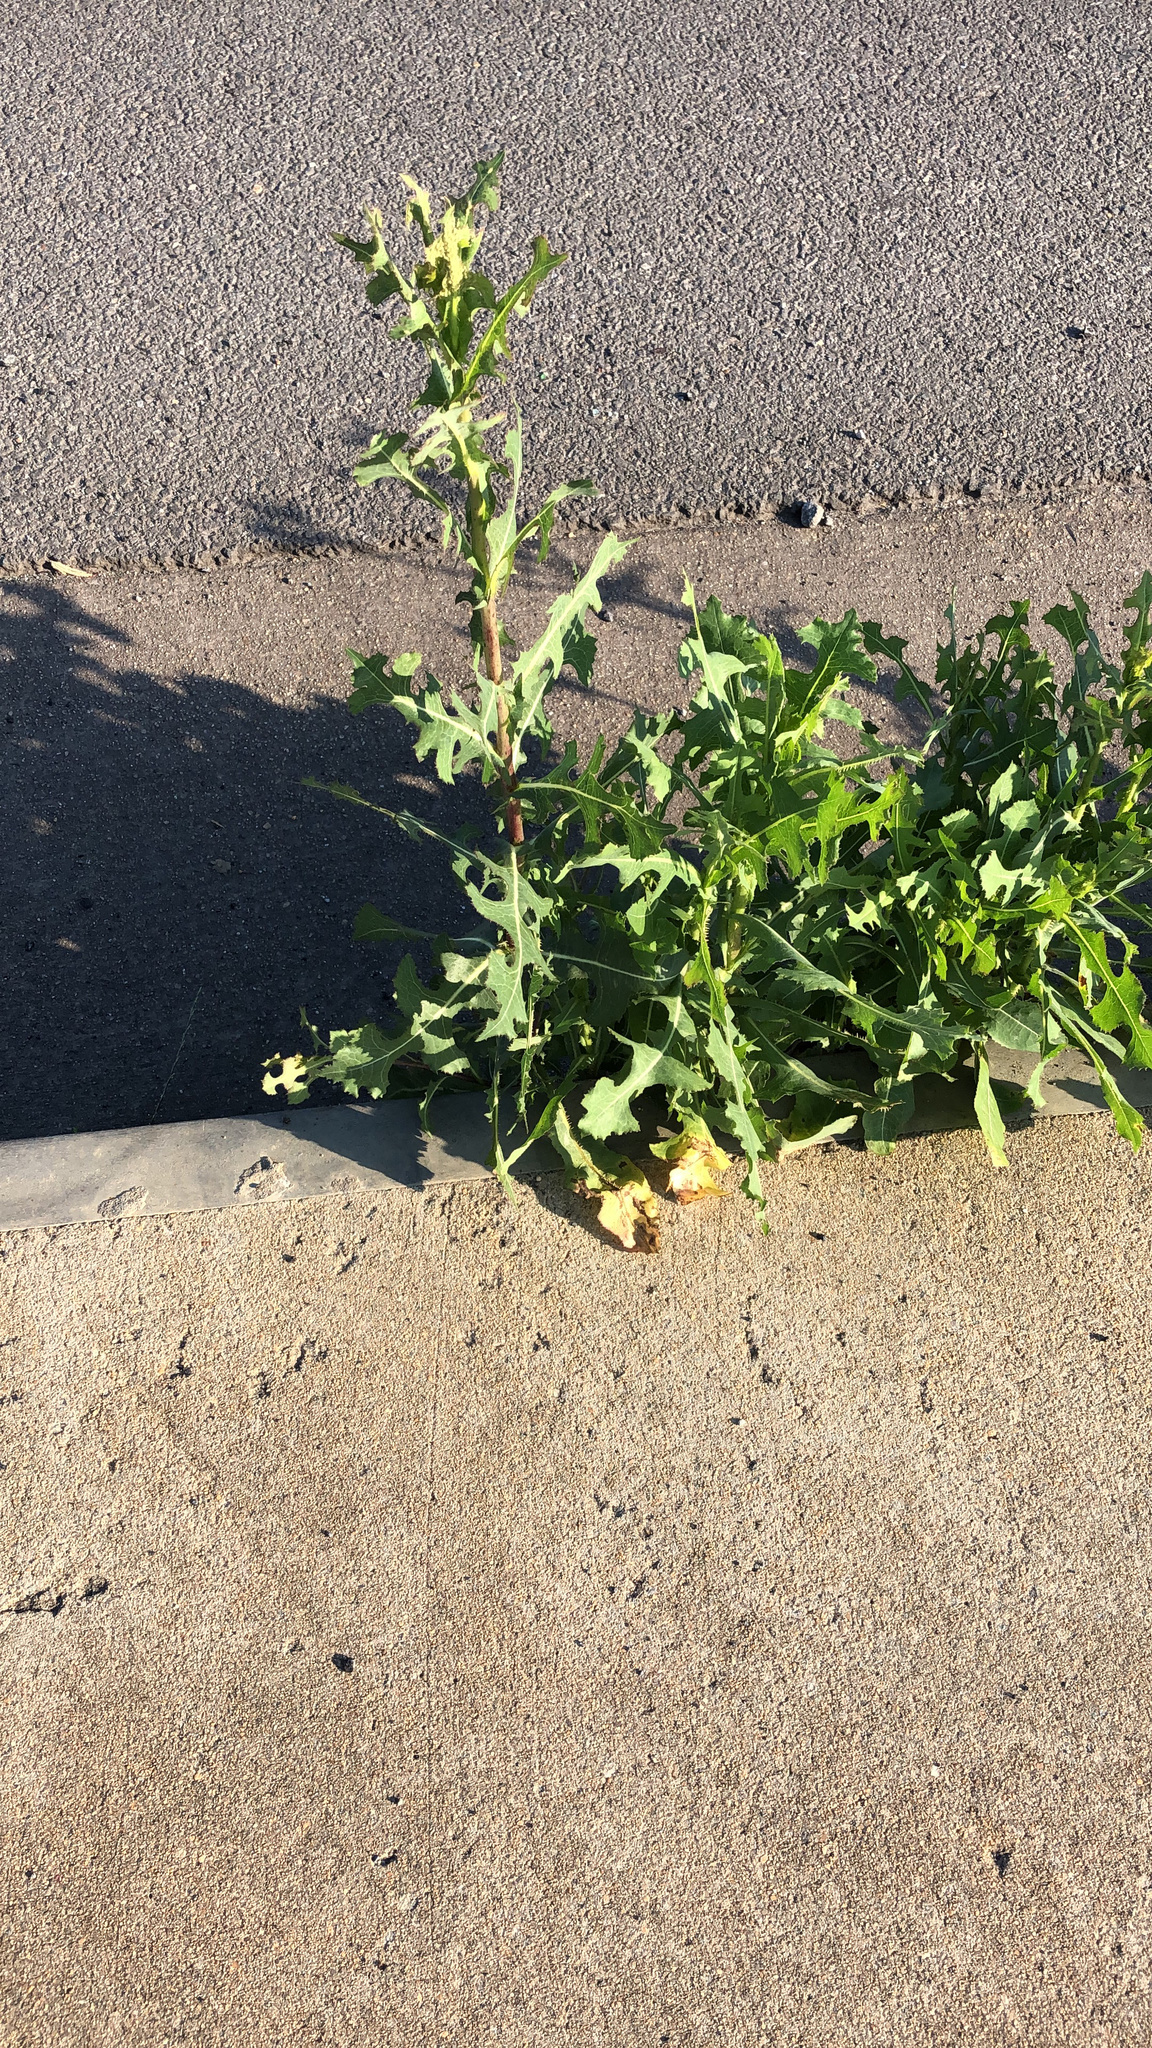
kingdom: Plantae
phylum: Tracheophyta
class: Magnoliopsida
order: Asterales
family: Asteraceae
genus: Lactuca
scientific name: Lactuca serriola
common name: Prickly lettuce
